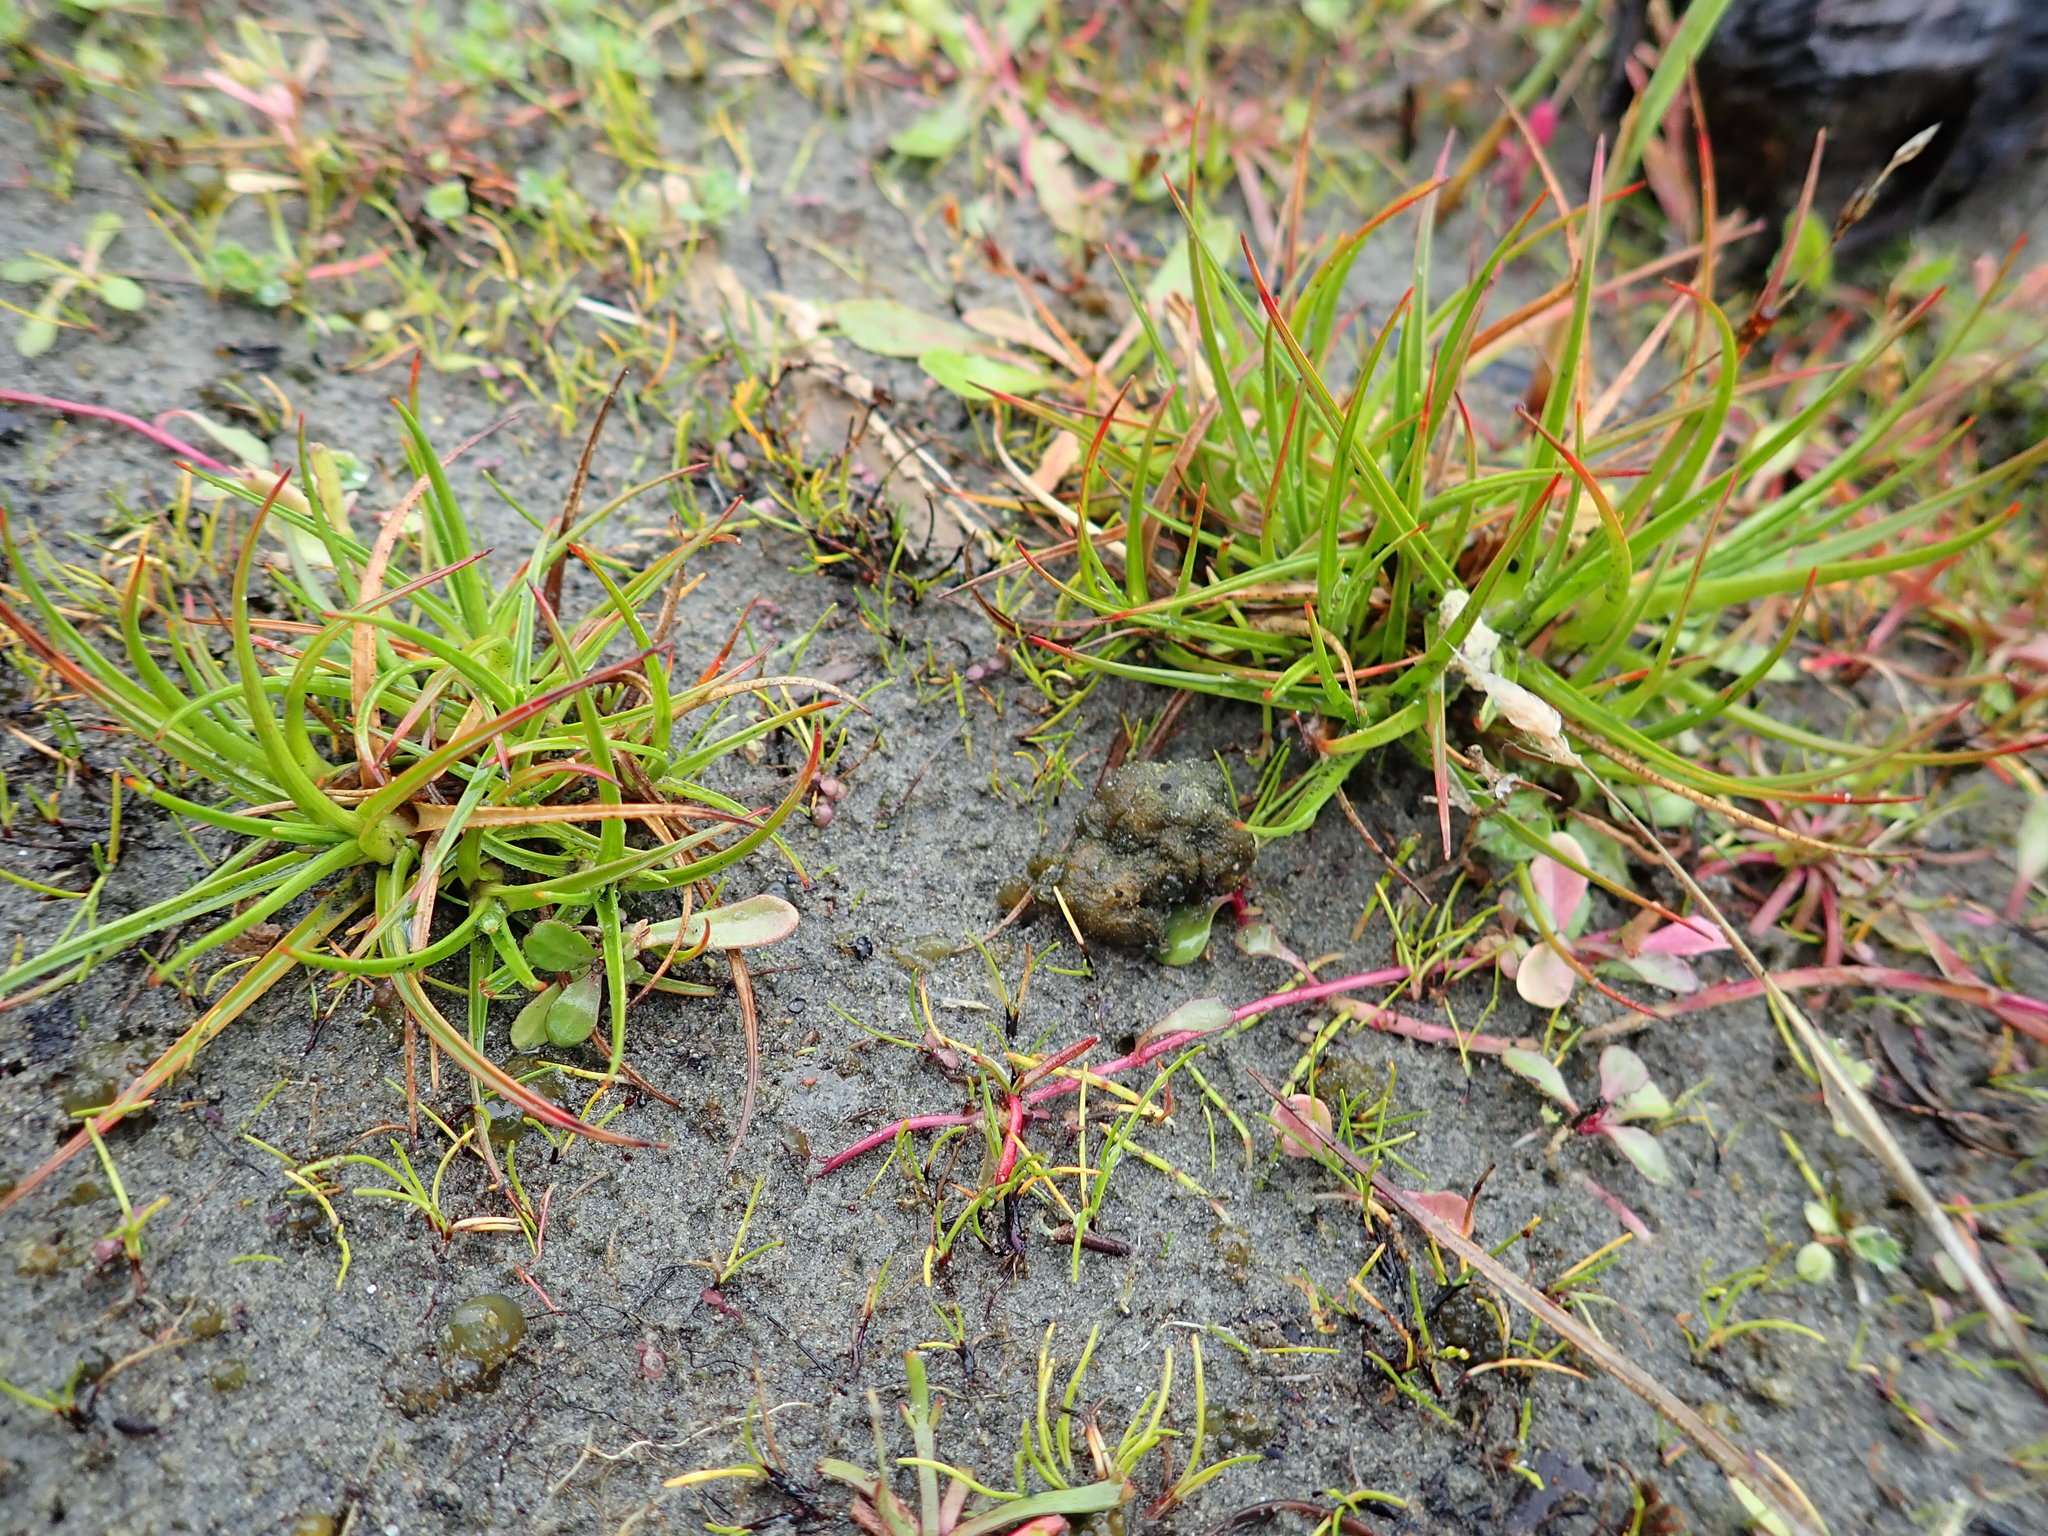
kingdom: Plantae
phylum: Tracheophyta
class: Liliopsida
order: Poales
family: Juncaceae
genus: Juncus
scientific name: Juncus caespiticius
